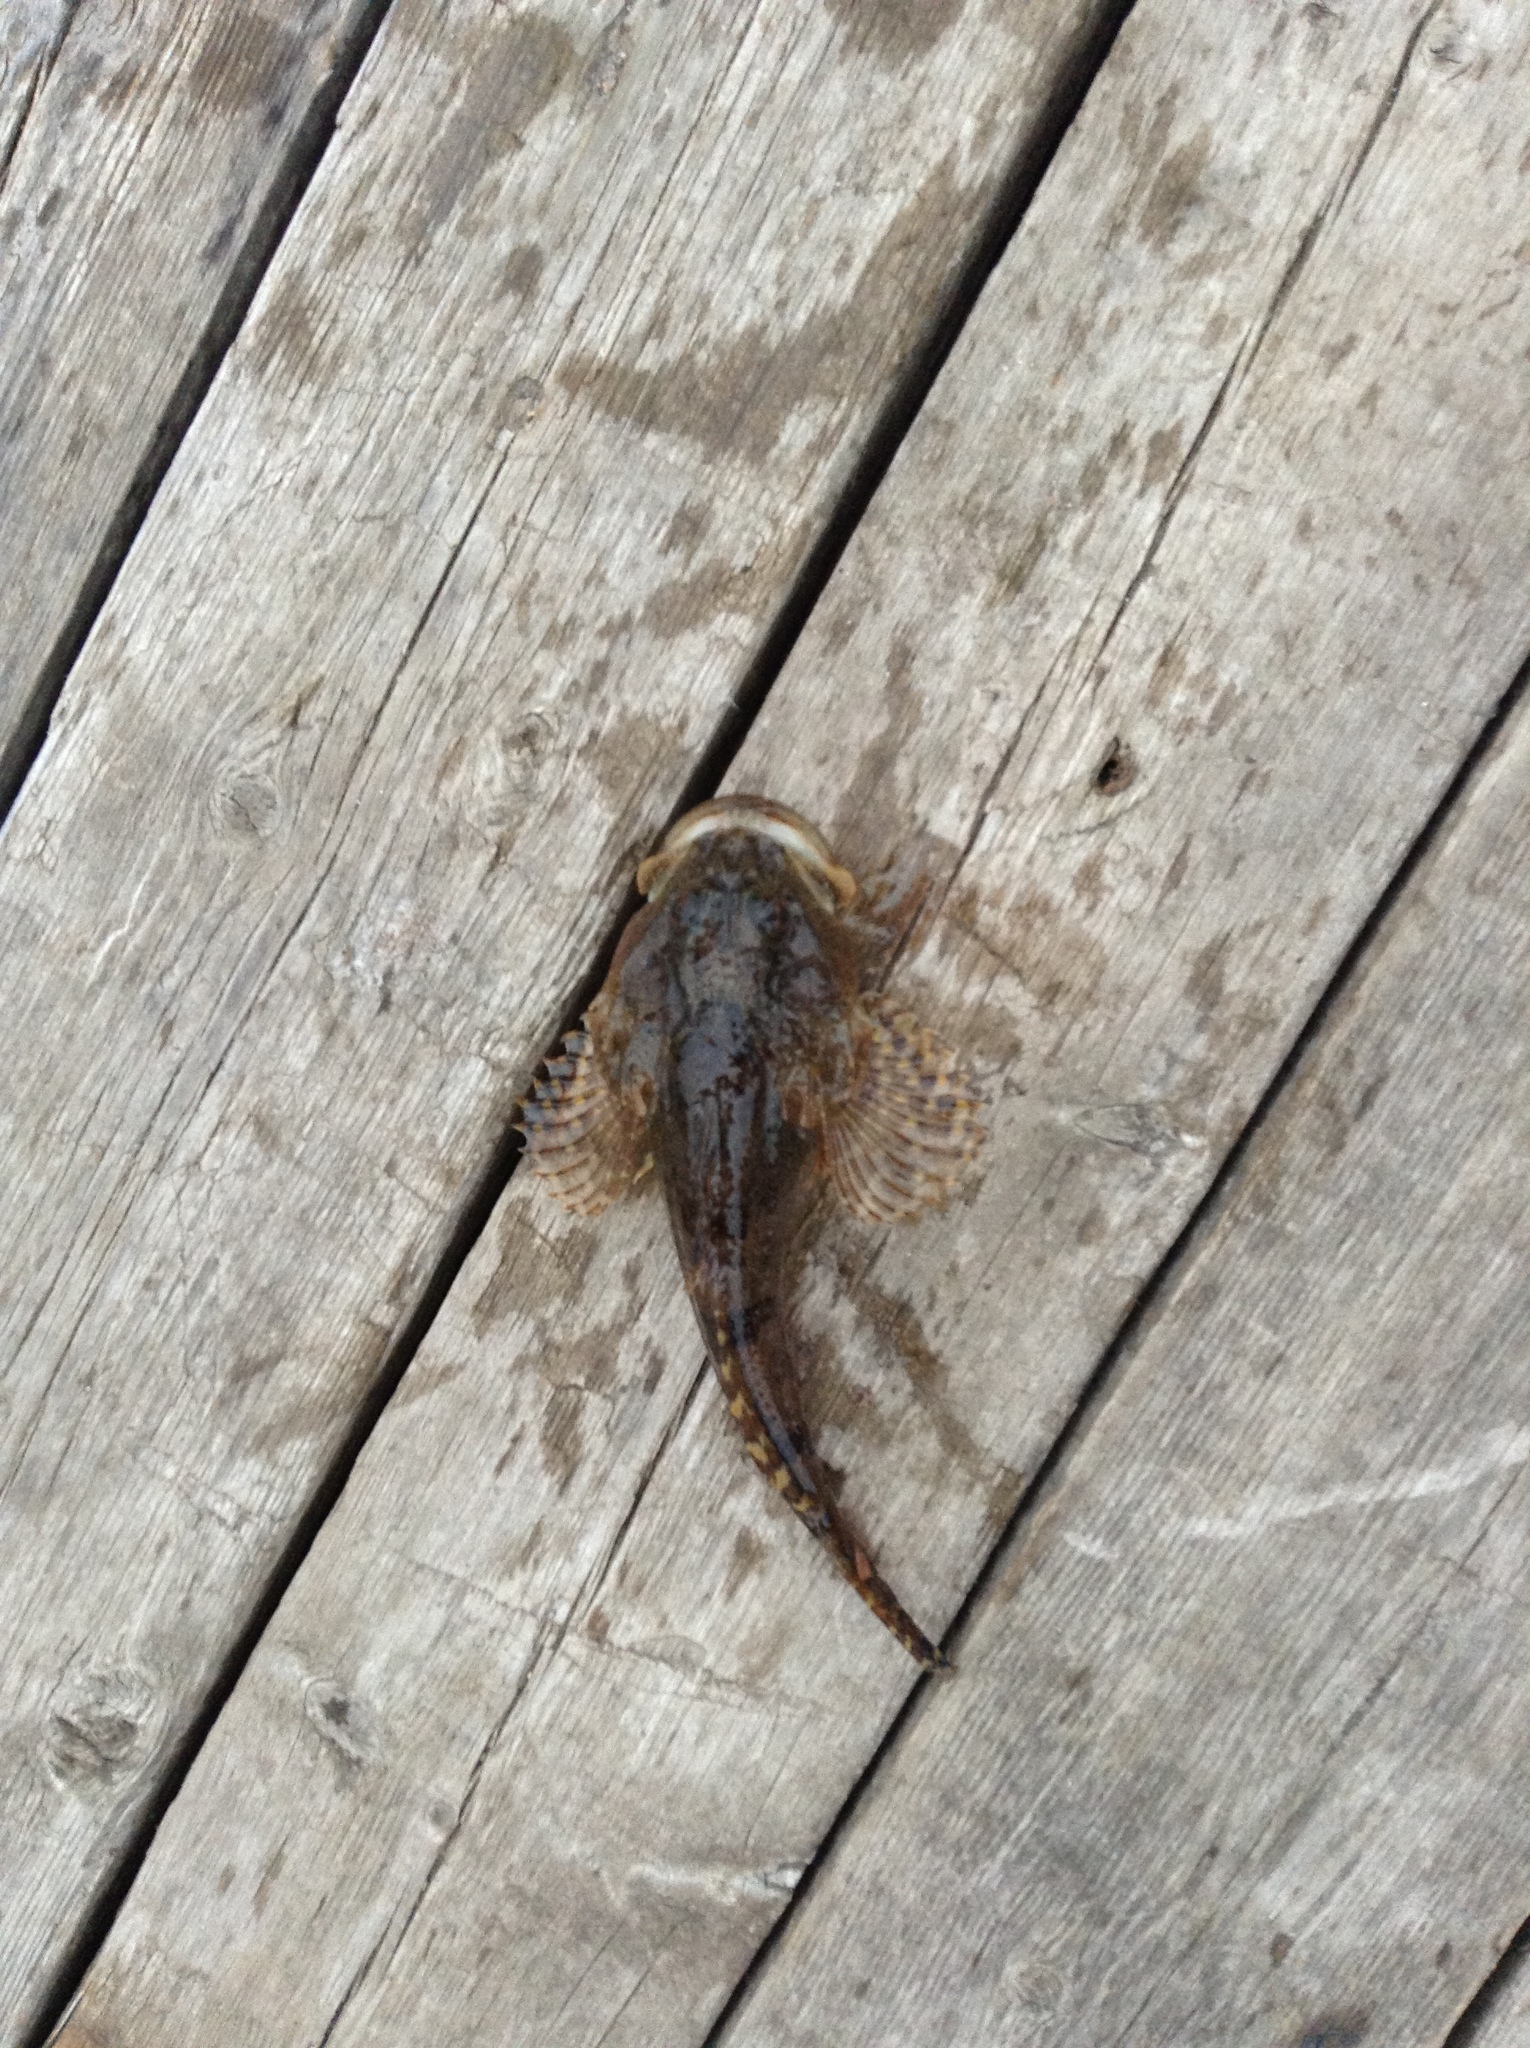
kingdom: Animalia
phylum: Chordata
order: Scorpaeniformes
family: Cottidae
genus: Myoxocephalus
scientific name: Myoxocephalus scorpius
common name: Shorthorn sculpin
